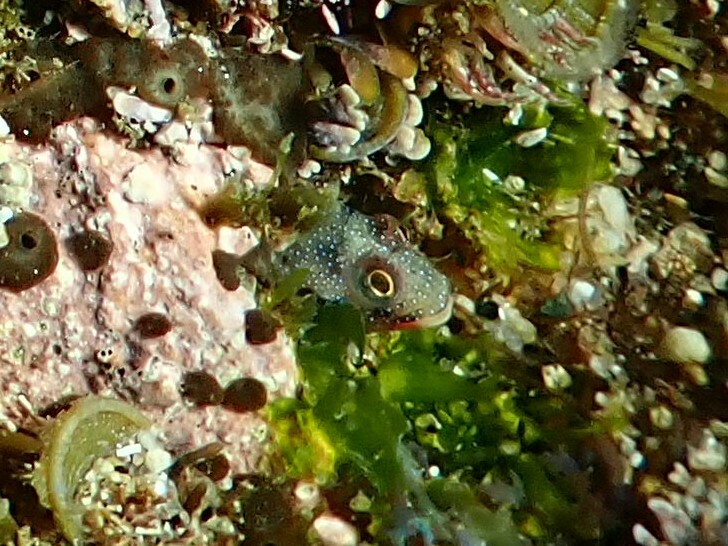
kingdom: Animalia
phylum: Chordata
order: Perciformes
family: Chaenopsidae
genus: Acanthemblemaria
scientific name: Acanthemblemaria macrospilus
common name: Barnacle blenny
